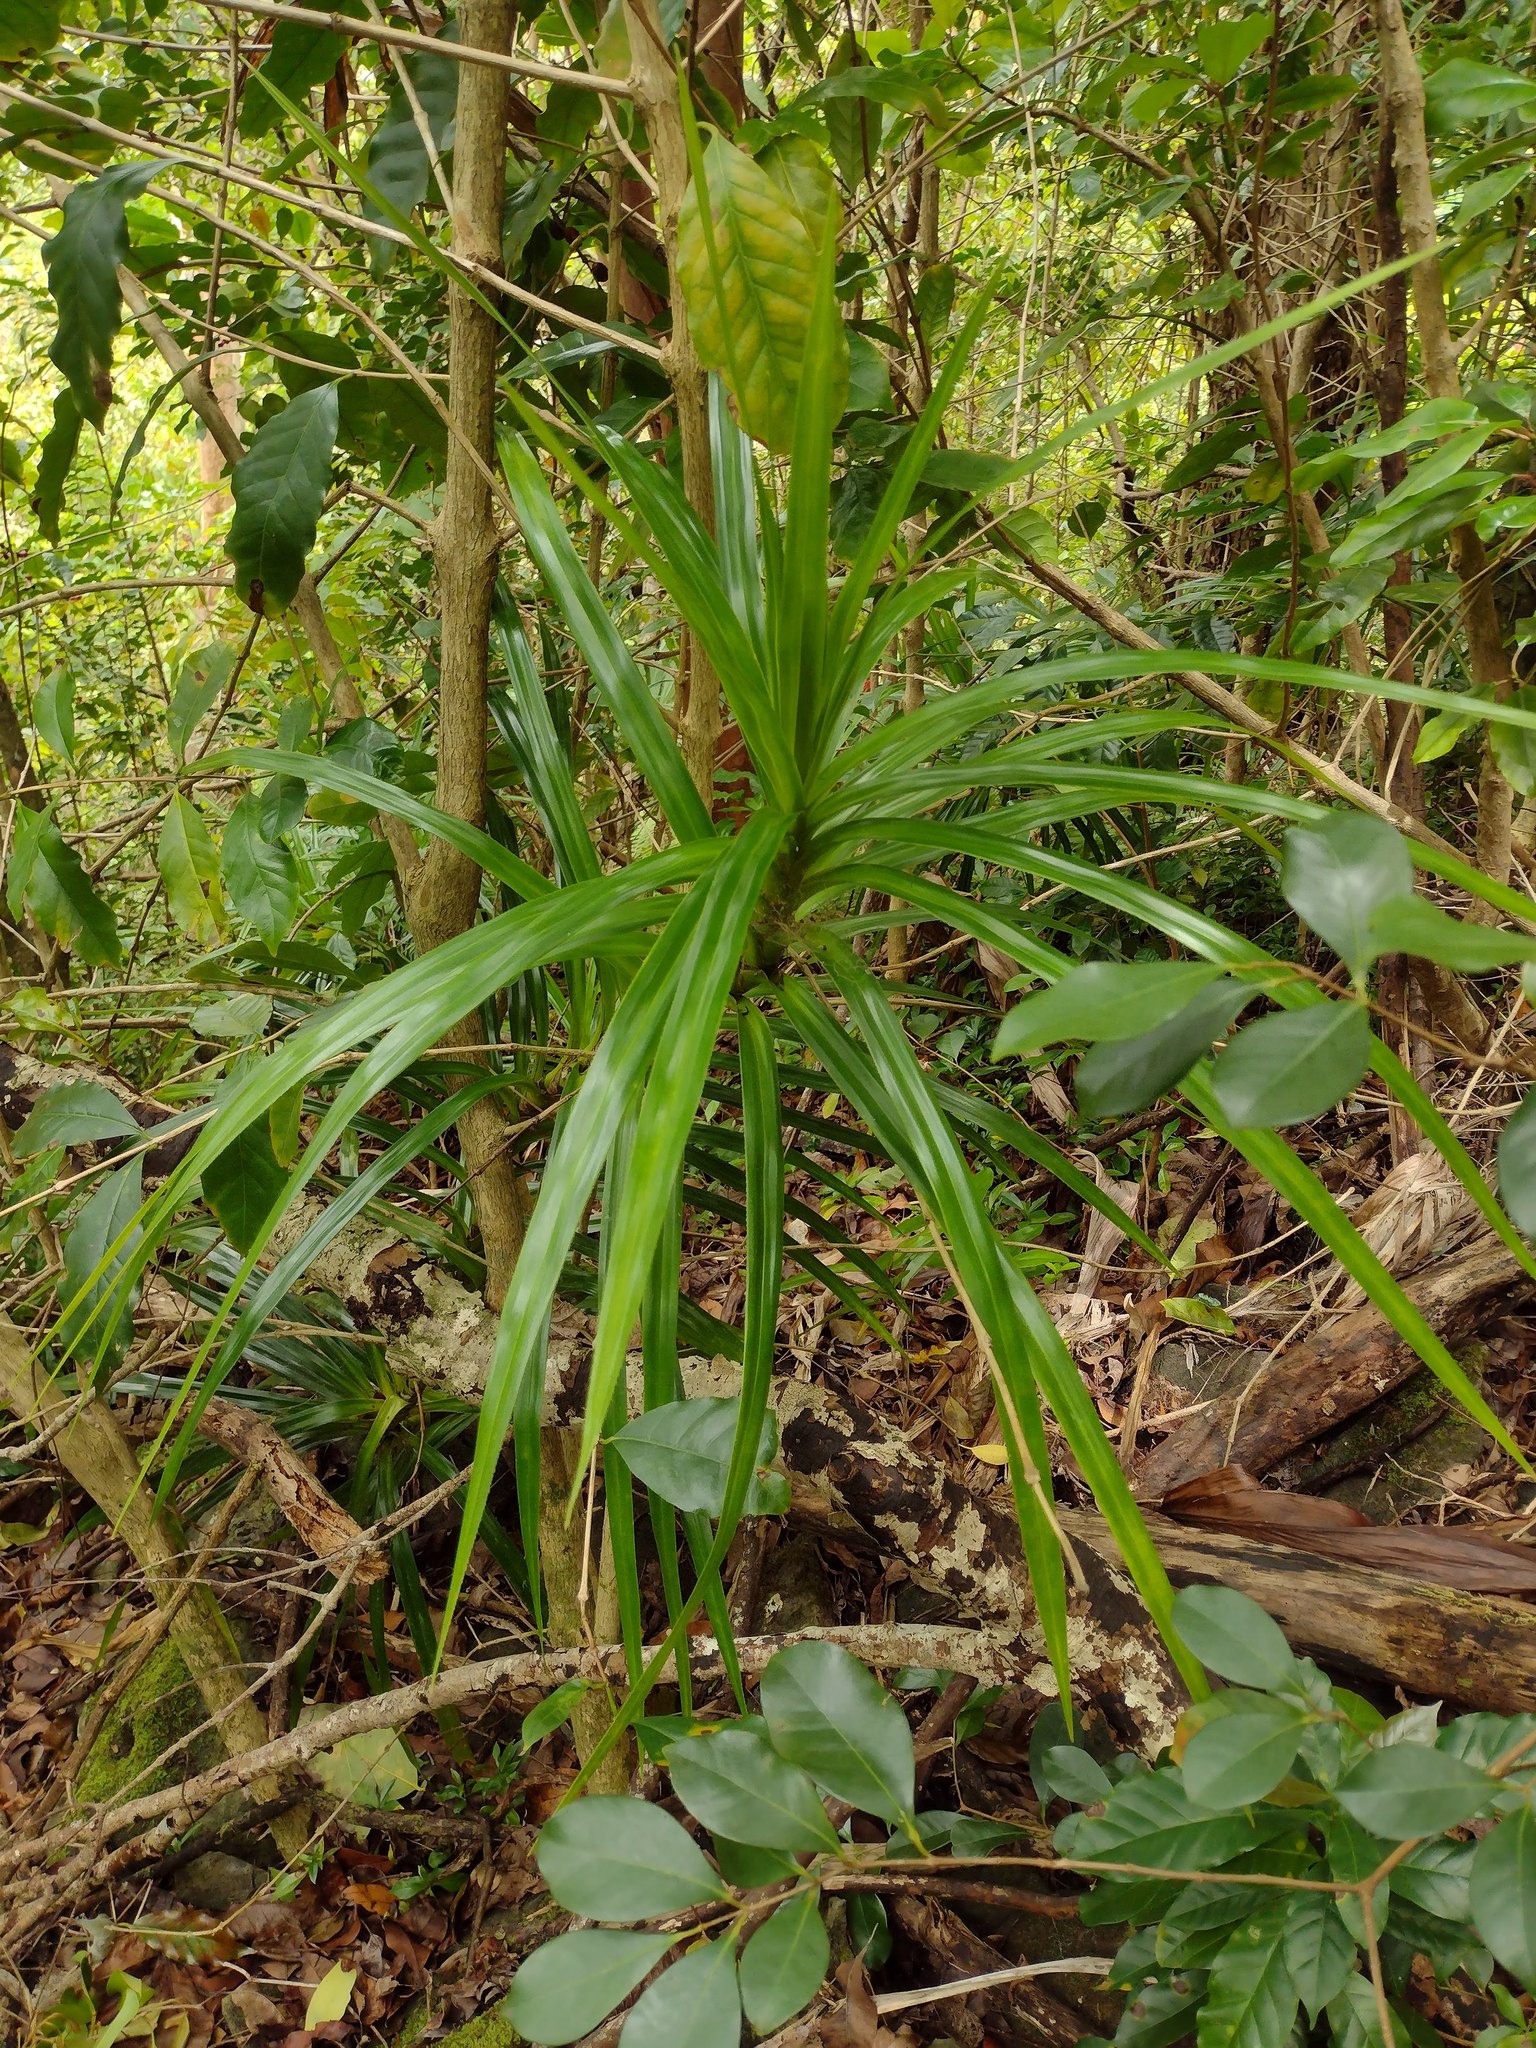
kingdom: Plantae
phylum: Tracheophyta
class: Liliopsida
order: Pandanales
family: Pandanaceae
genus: Freycinetia
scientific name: Freycinetia arborea
